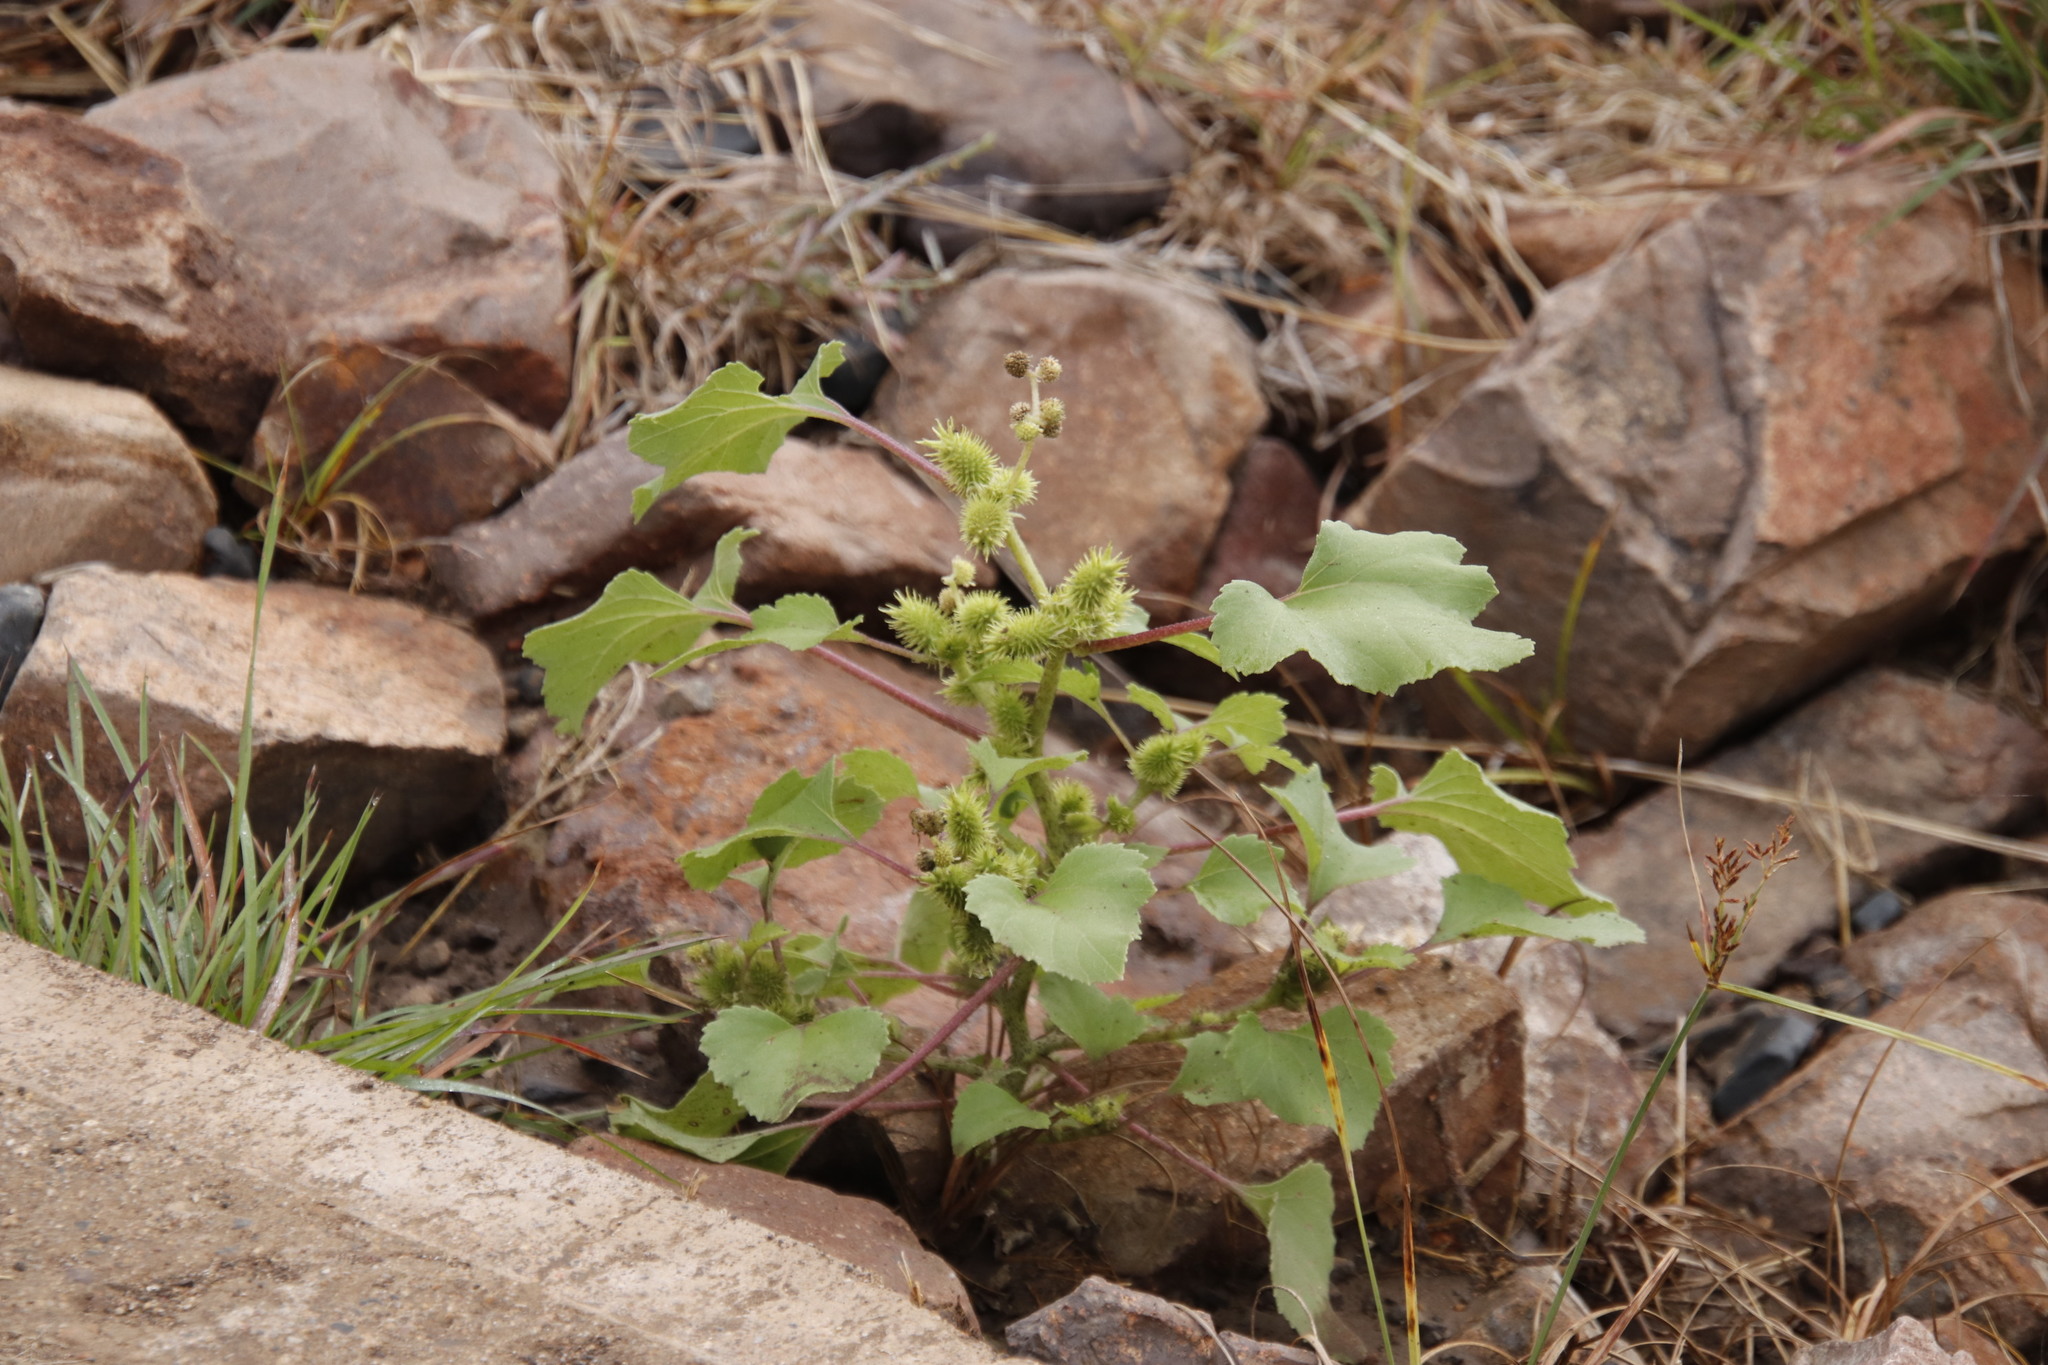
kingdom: Plantae
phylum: Tracheophyta
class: Magnoliopsida
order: Asterales
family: Asteraceae
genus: Xanthium
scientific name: Xanthium strumarium
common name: Rough cocklebur
